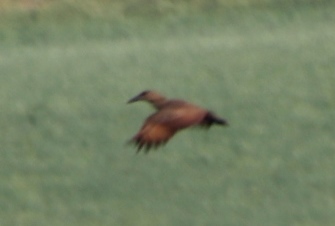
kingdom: Animalia
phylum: Chordata
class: Aves
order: Pelecaniformes
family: Scopidae
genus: Scopus
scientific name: Scopus umbretta
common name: Hamerkop
